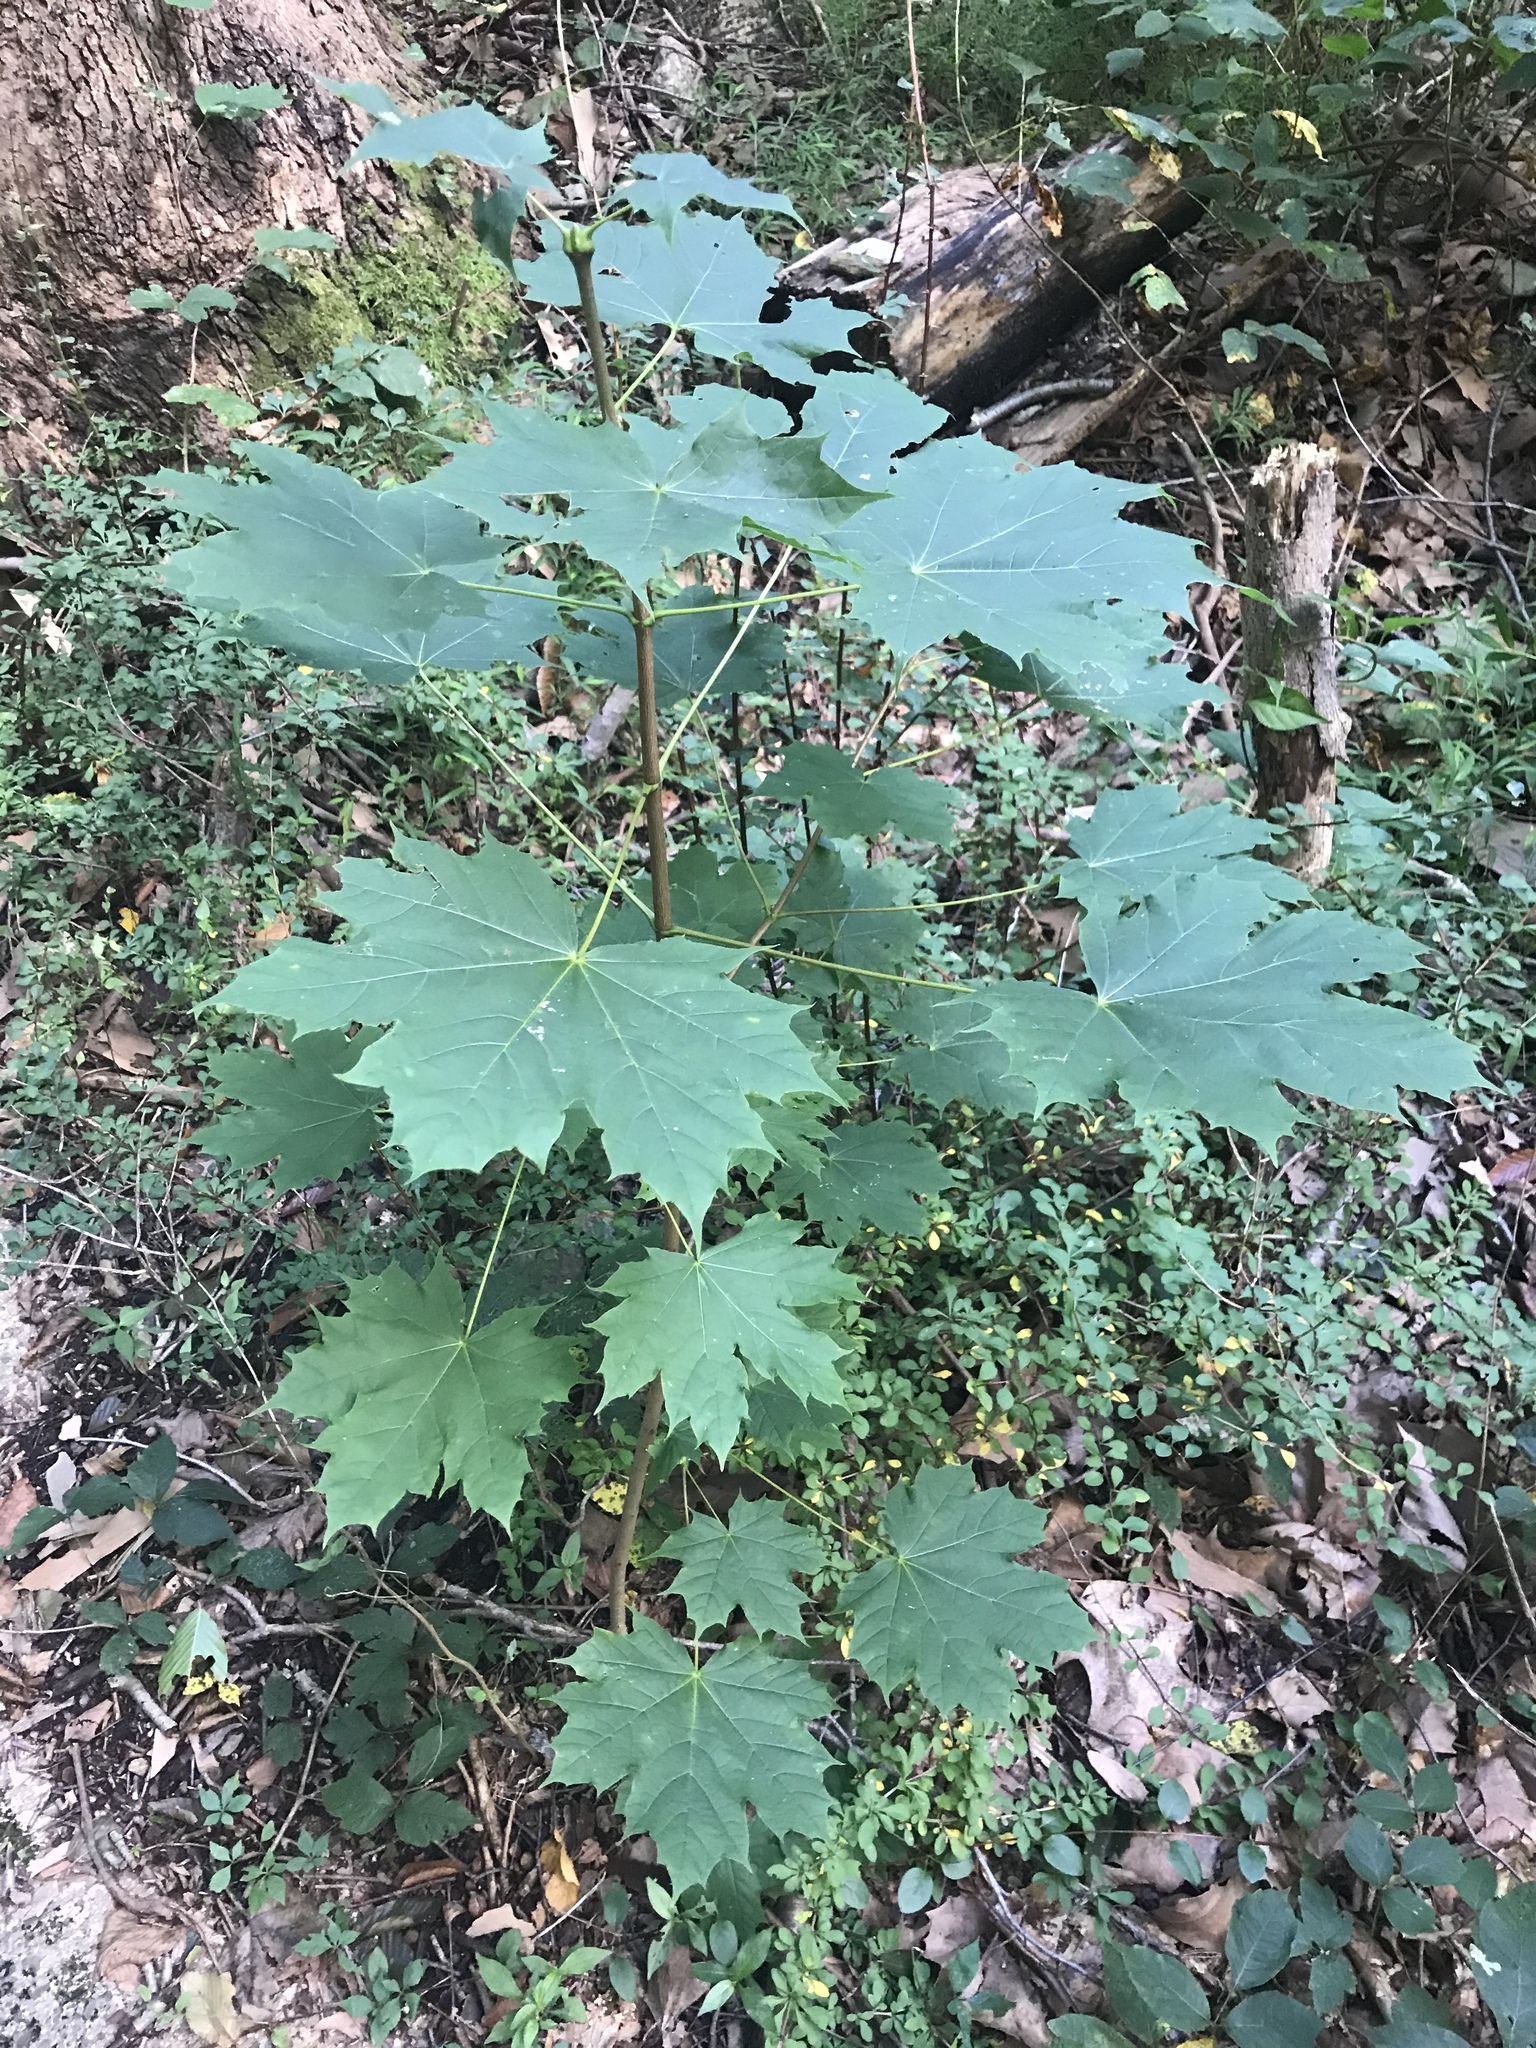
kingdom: Plantae
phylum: Tracheophyta
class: Magnoliopsida
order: Sapindales
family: Sapindaceae
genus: Acer
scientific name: Acer platanoides
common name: Norway maple
